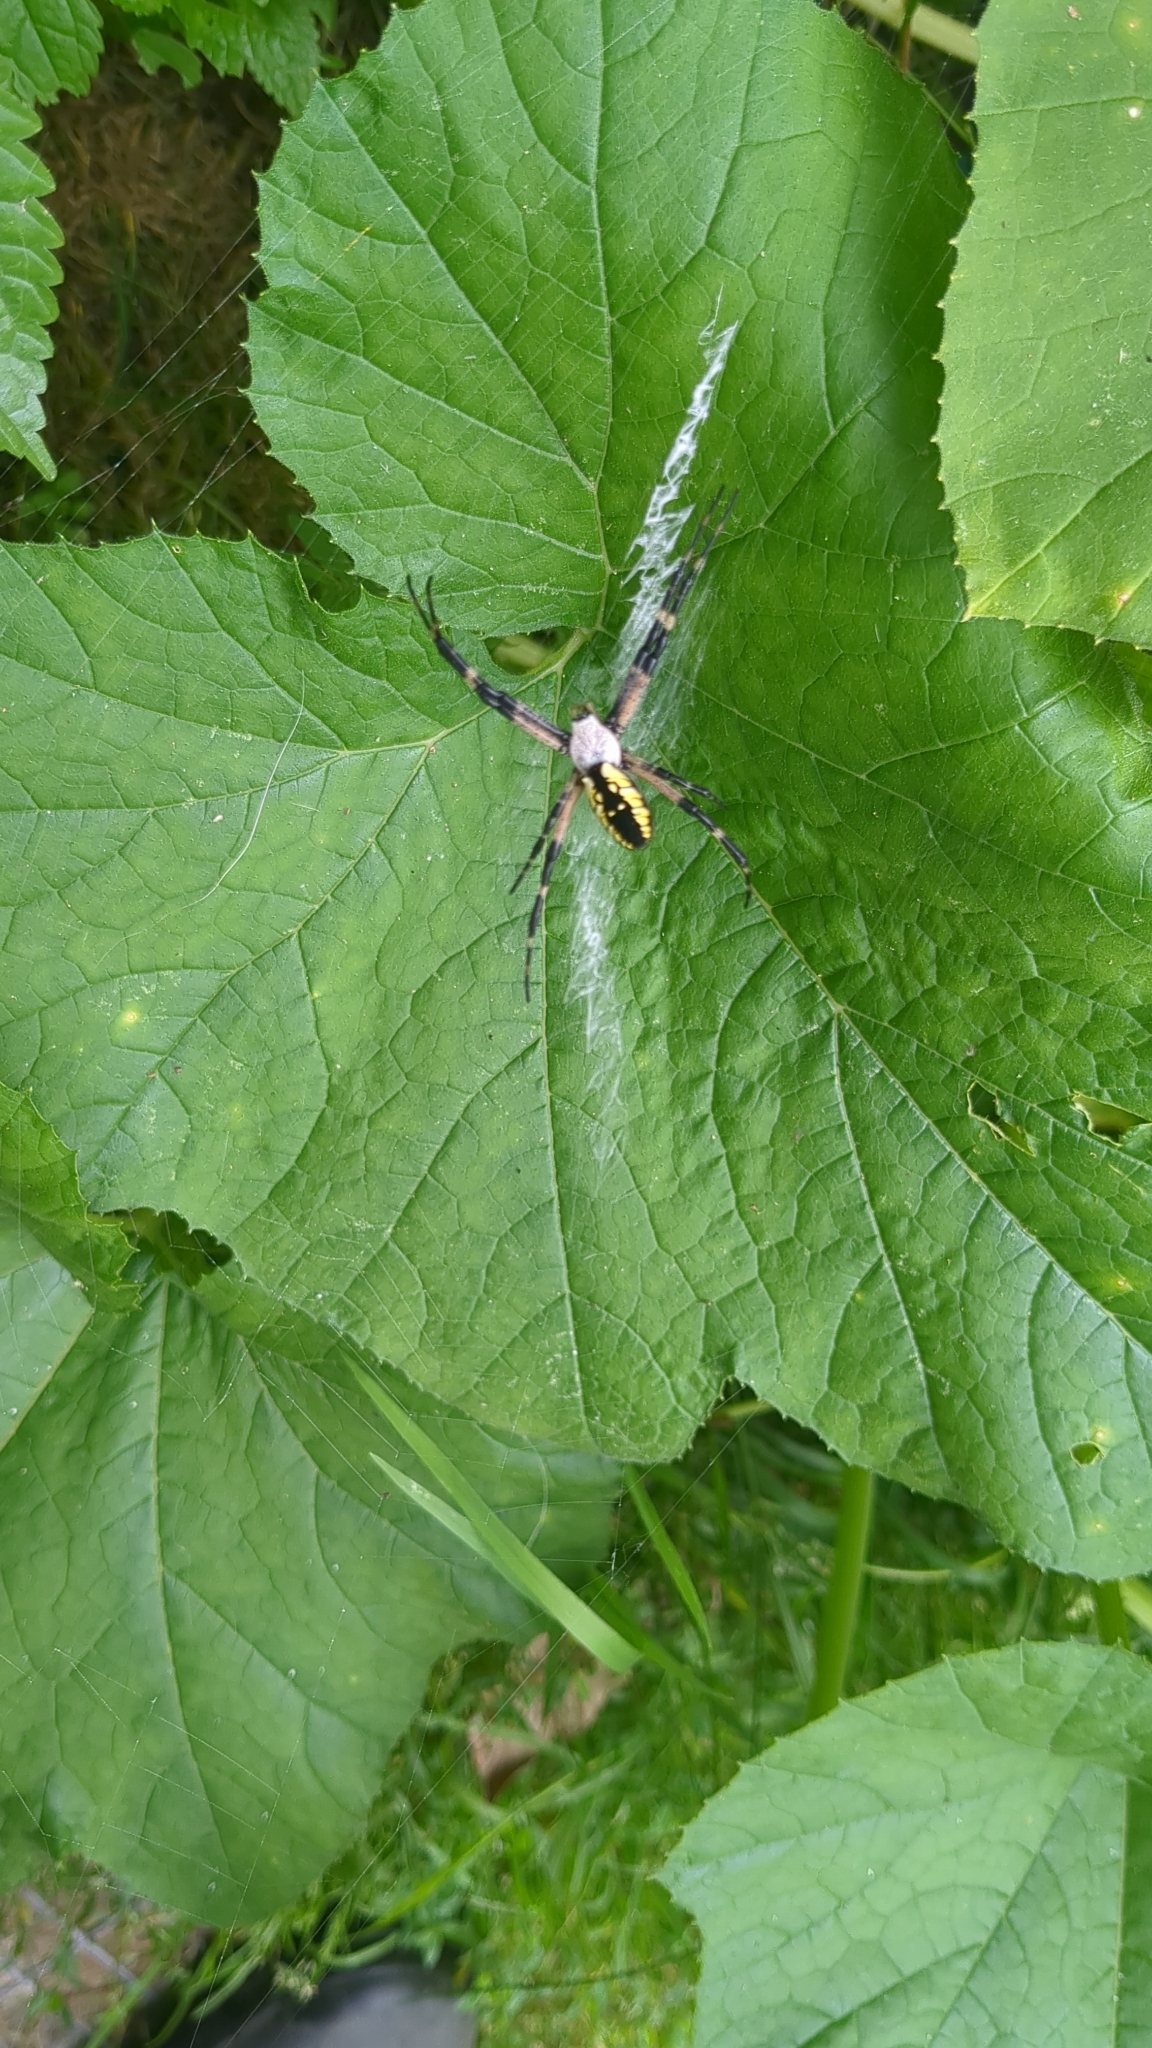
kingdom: Animalia
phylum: Arthropoda
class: Arachnida
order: Araneae
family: Araneidae
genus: Argiope
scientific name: Argiope aurantia
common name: Orb weavers
